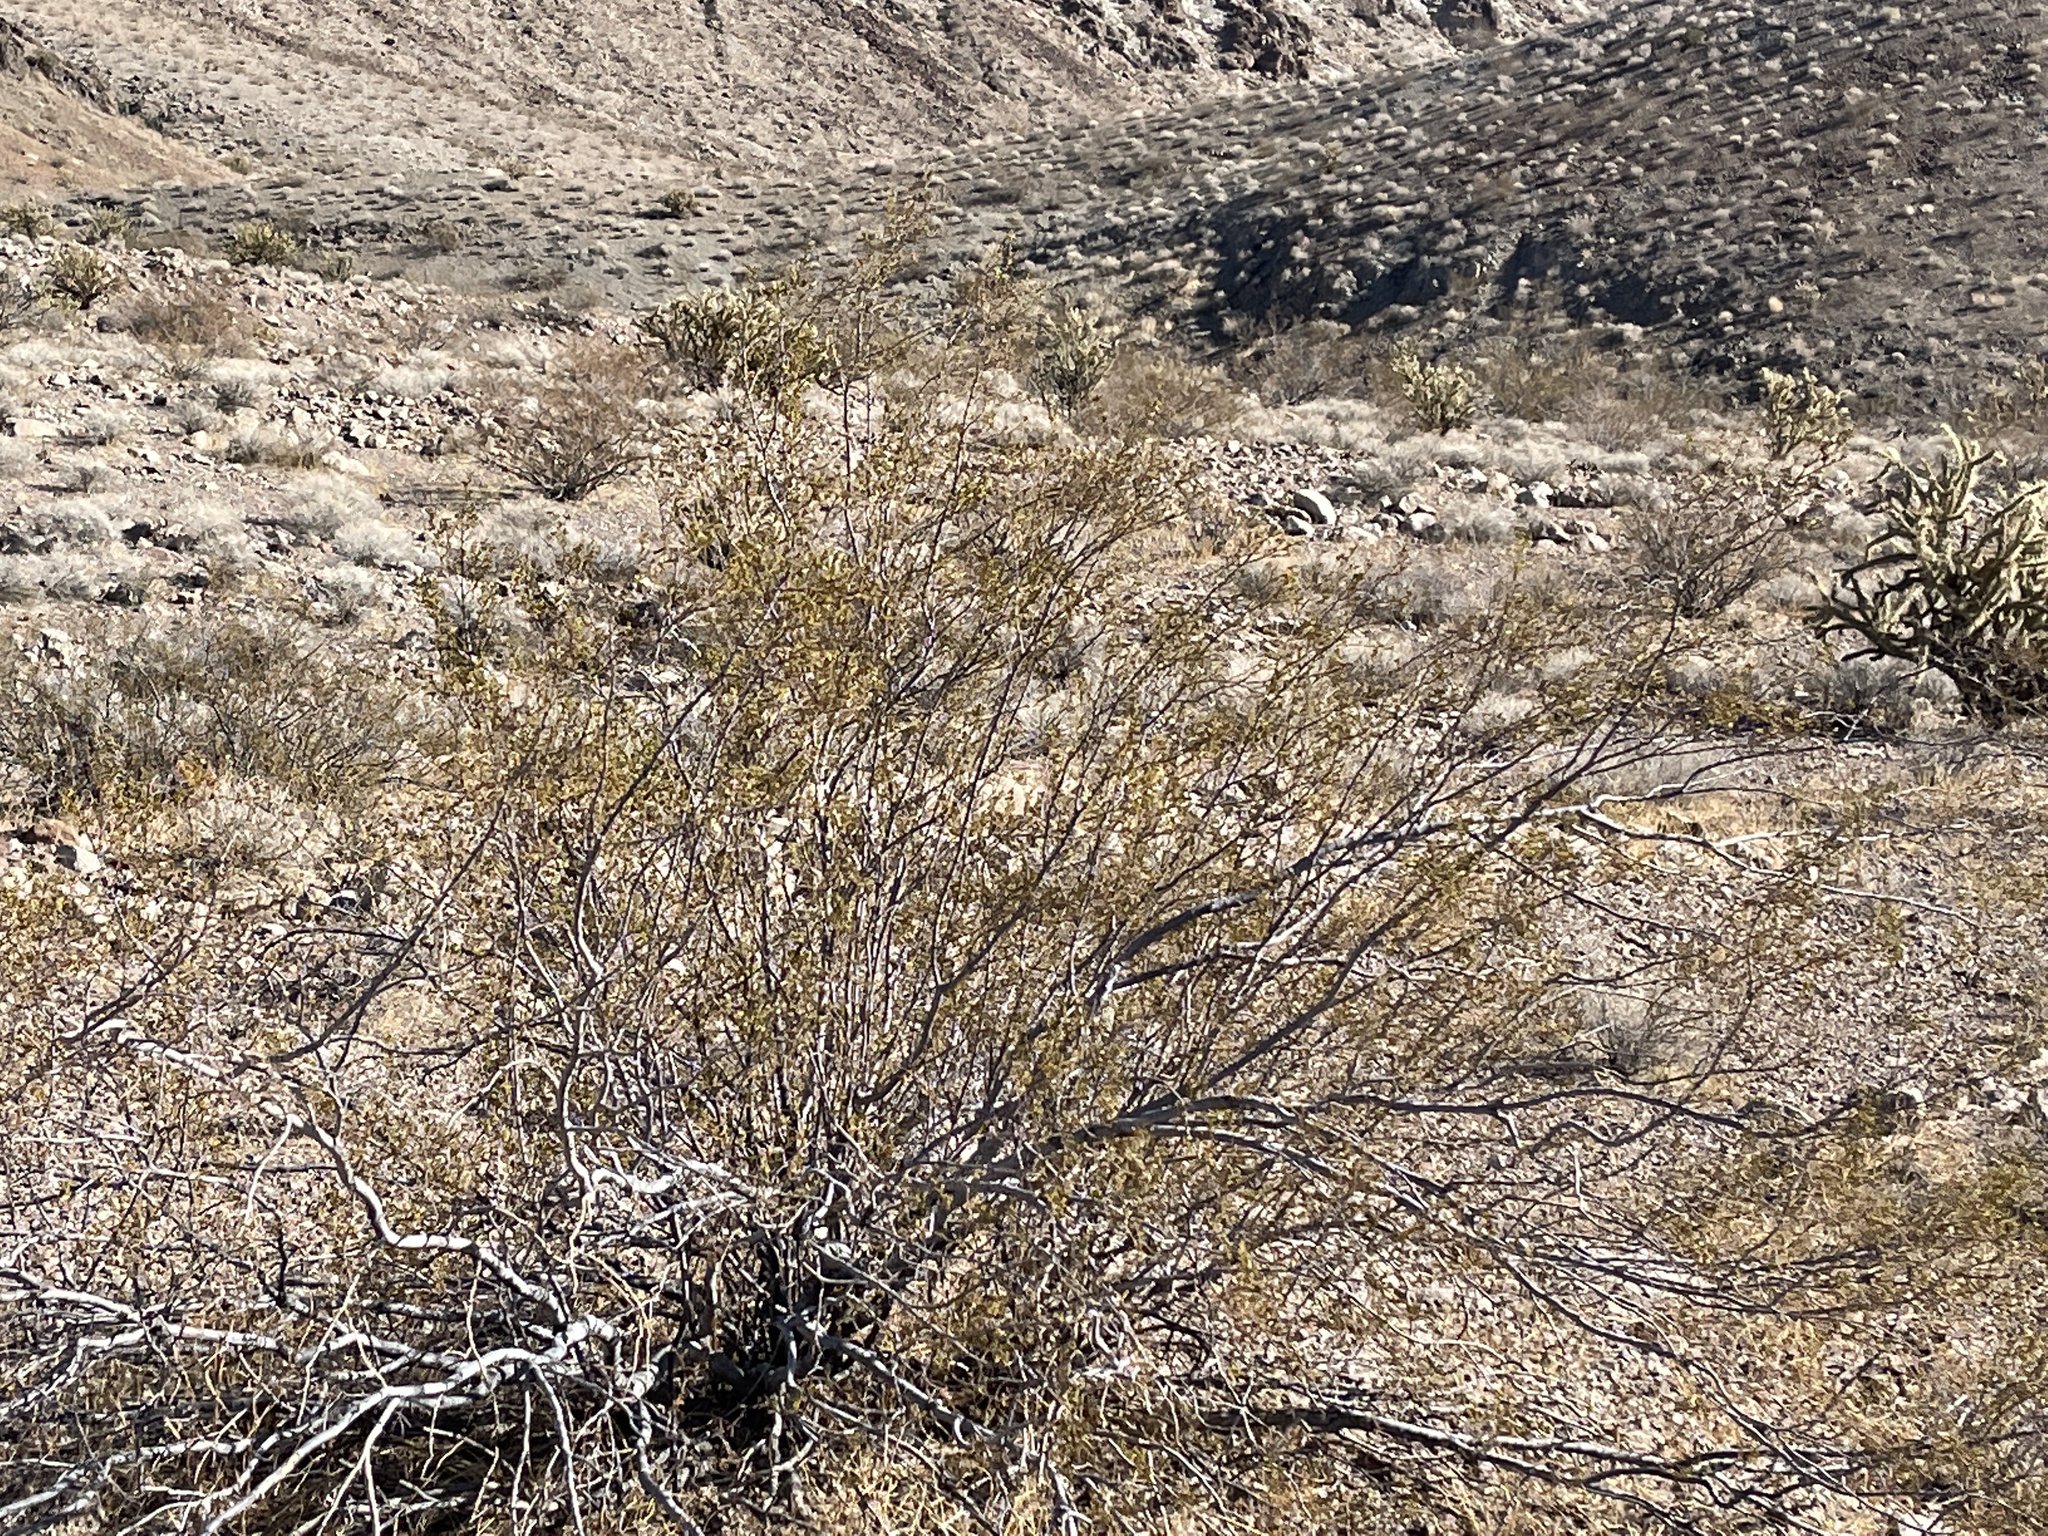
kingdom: Plantae
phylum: Tracheophyta
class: Magnoliopsida
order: Zygophyllales
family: Zygophyllaceae
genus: Larrea
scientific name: Larrea tridentata
